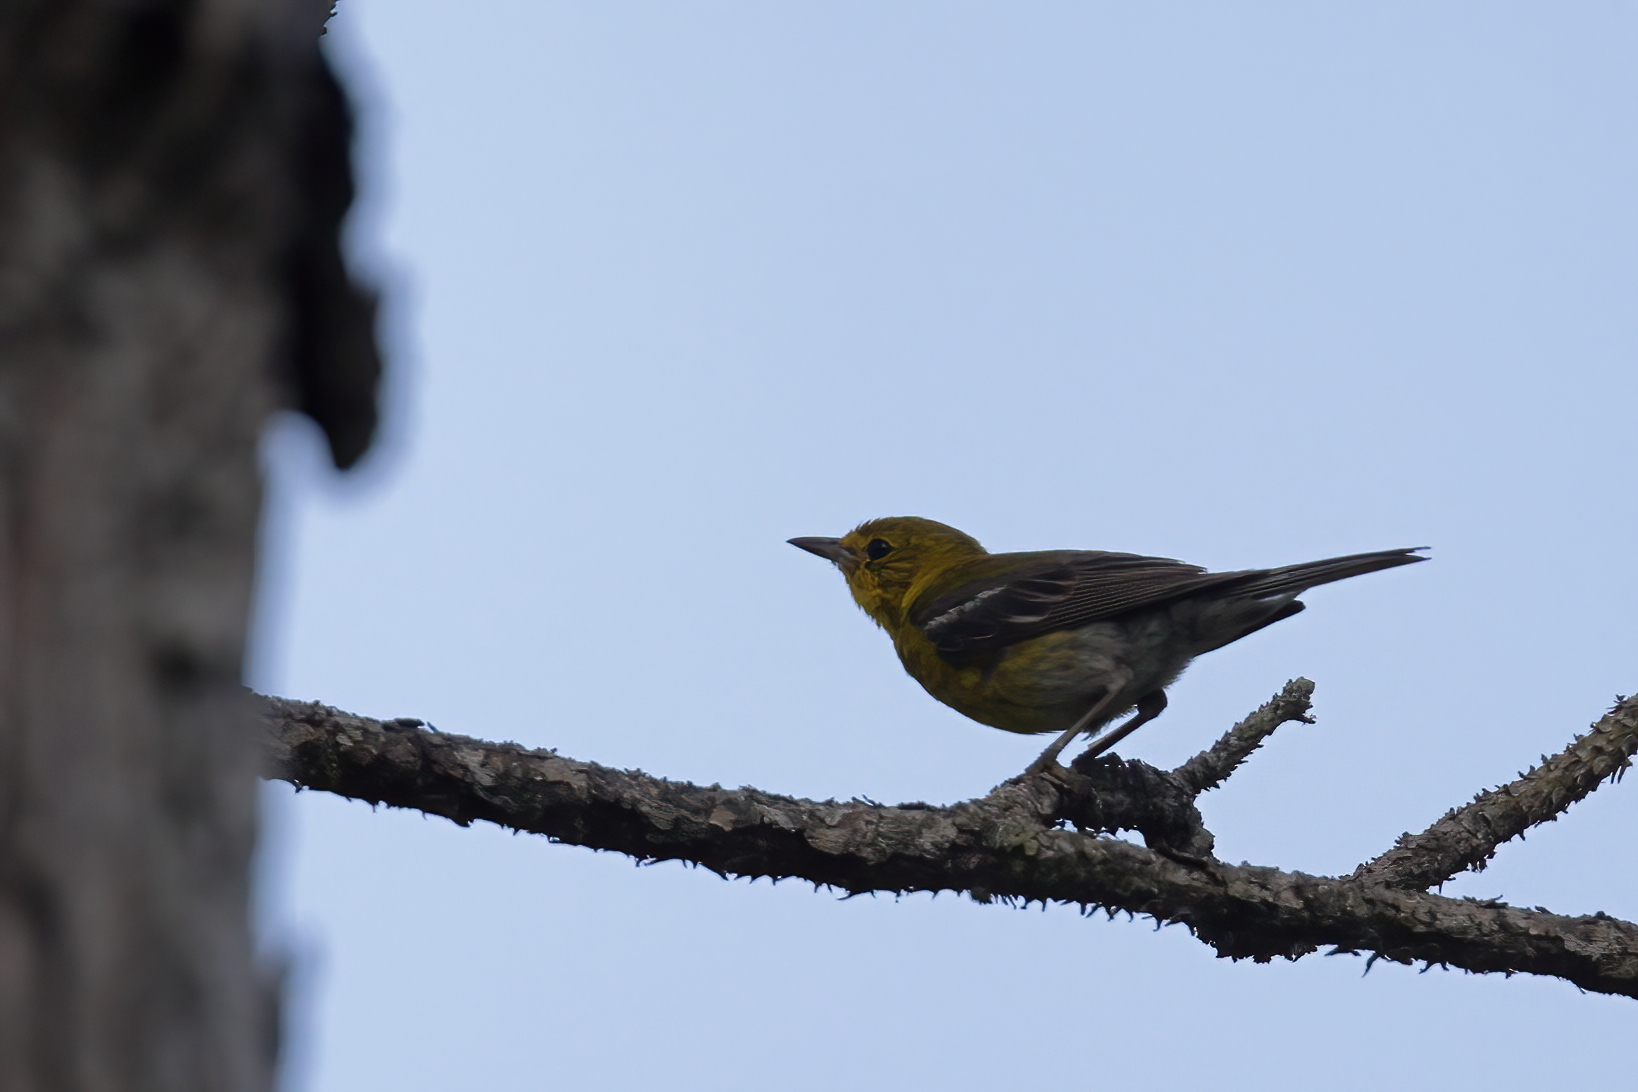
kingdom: Animalia
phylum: Chordata
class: Aves
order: Passeriformes
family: Parulidae
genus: Setophaga
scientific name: Setophaga pinus
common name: Pine warbler
